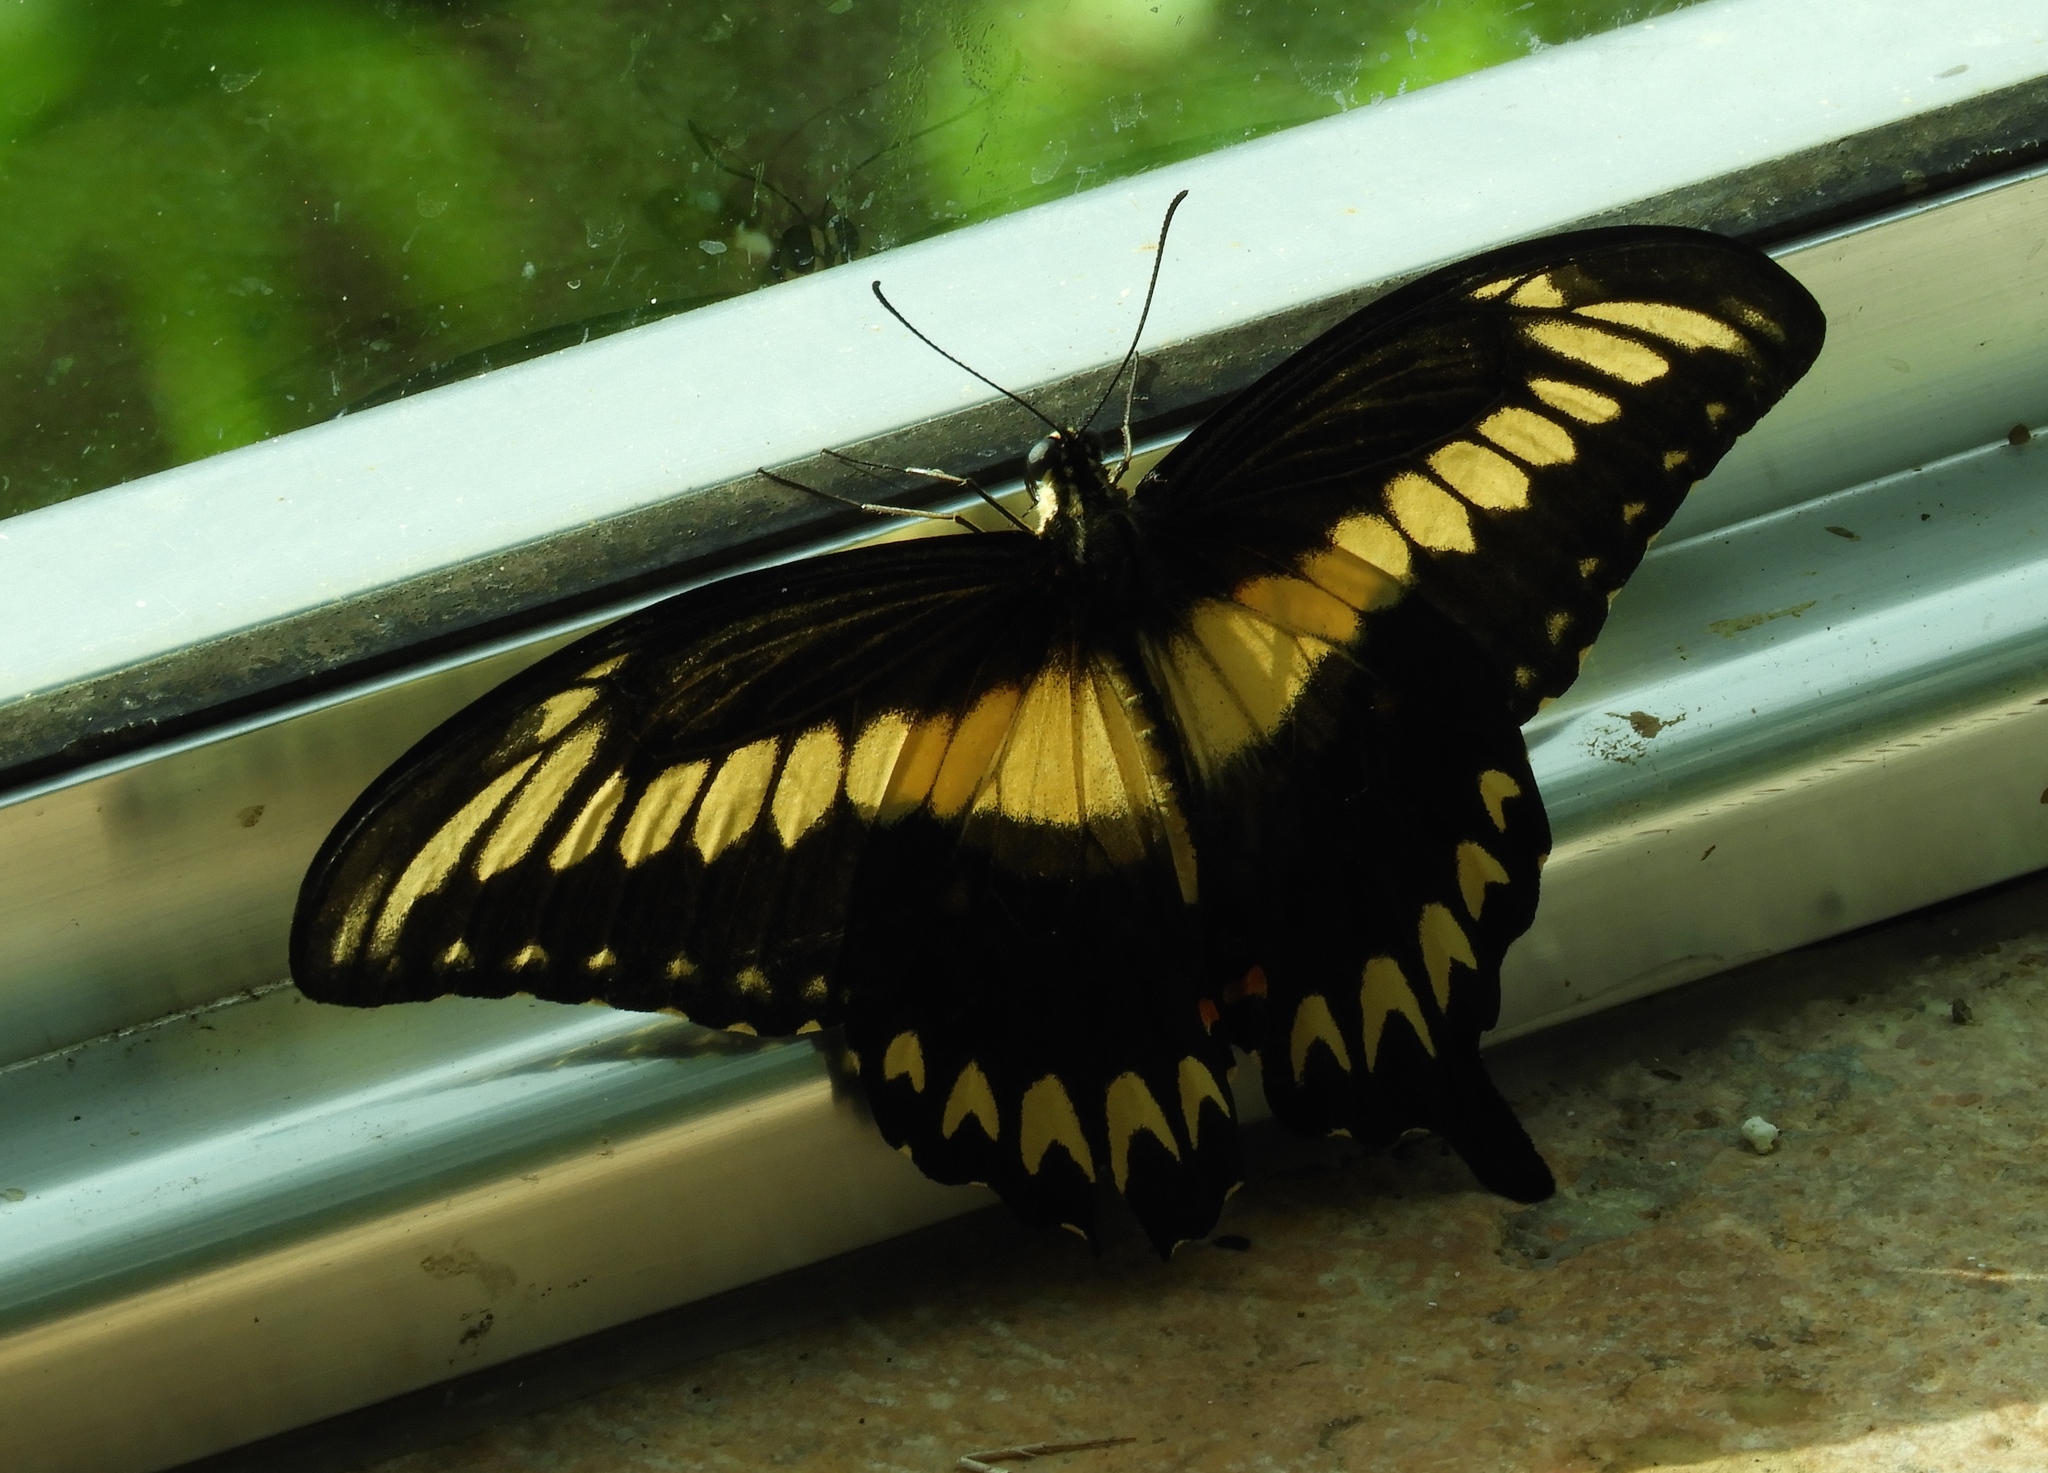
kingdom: Animalia
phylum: Arthropoda
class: Insecta
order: Lepidoptera
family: Papilionidae
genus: Heraclides
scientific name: Heraclides pallas
